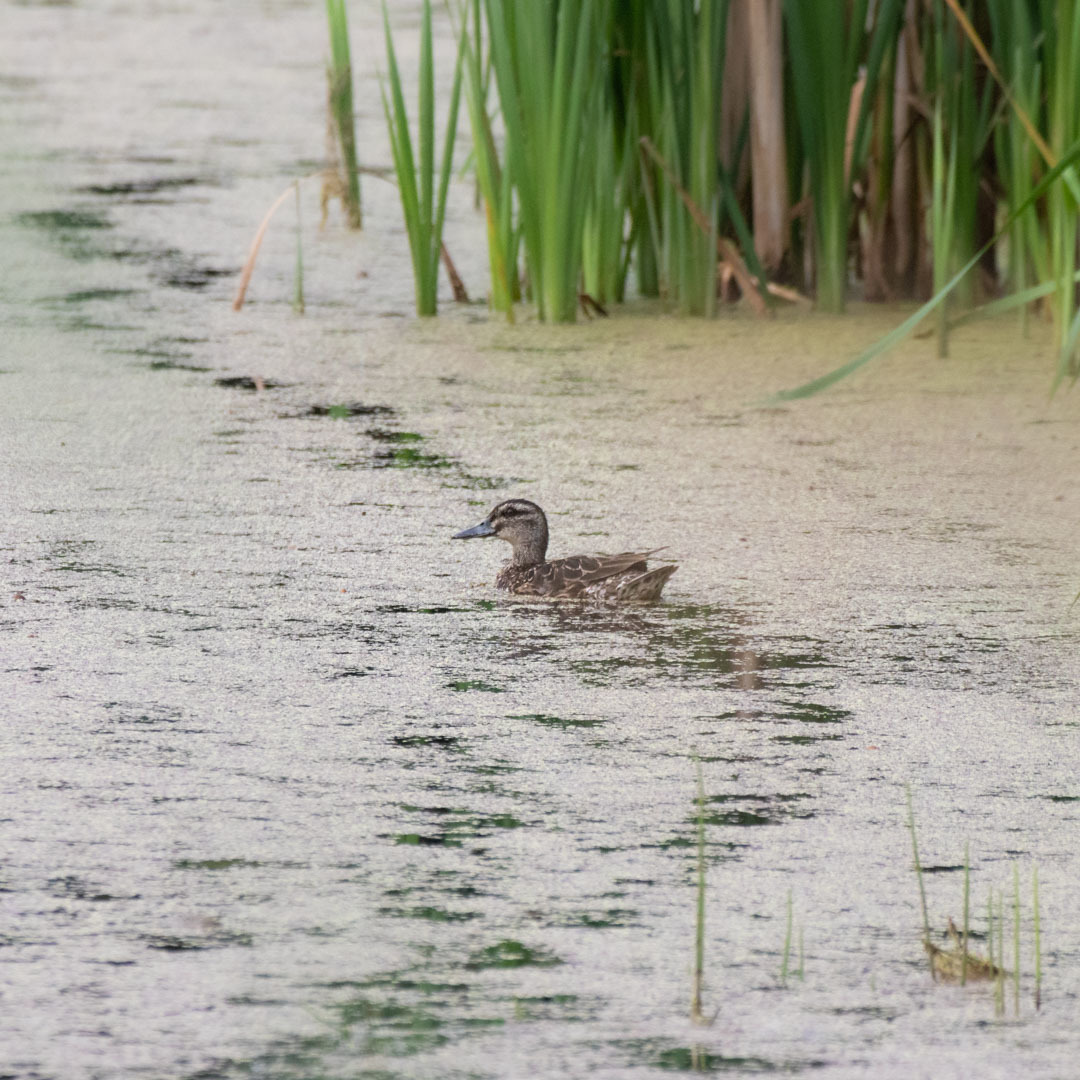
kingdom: Animalia
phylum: Chordata
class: Aves
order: Anseriformes
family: Anatidae
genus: Spatula
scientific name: Spatula querquedula
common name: Garganey
